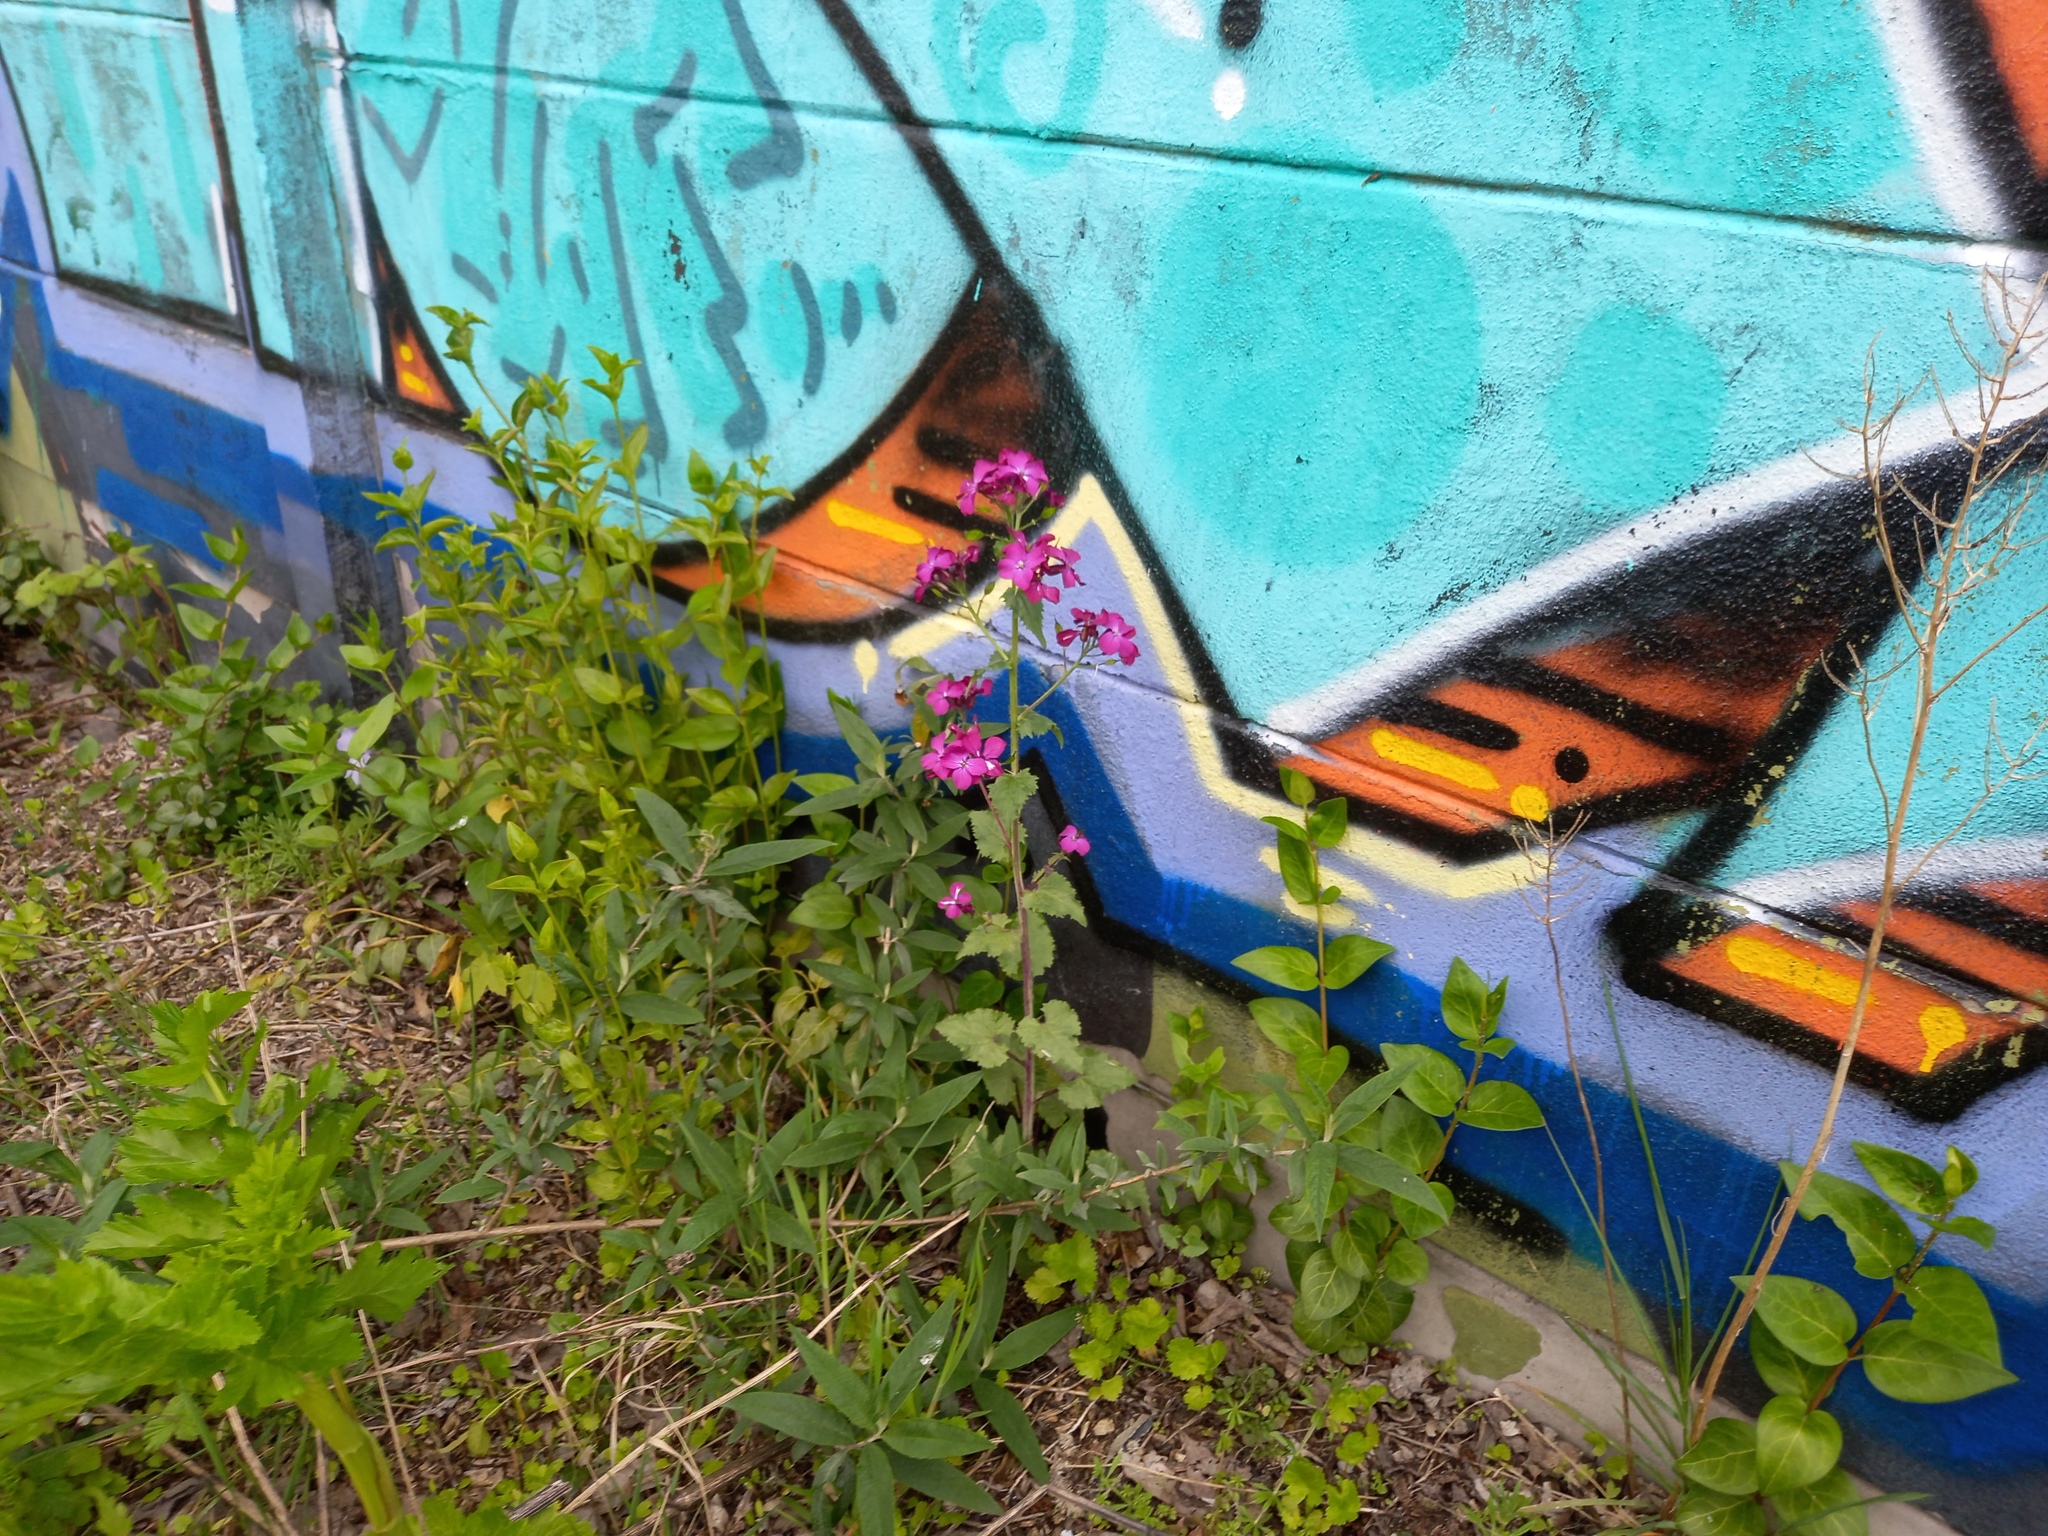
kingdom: Plantae
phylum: Tracheophyta
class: Magnoliopsida
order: Brassicales
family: Brassicaceae
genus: Lunaria
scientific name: Lunaria annua
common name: Honesty
